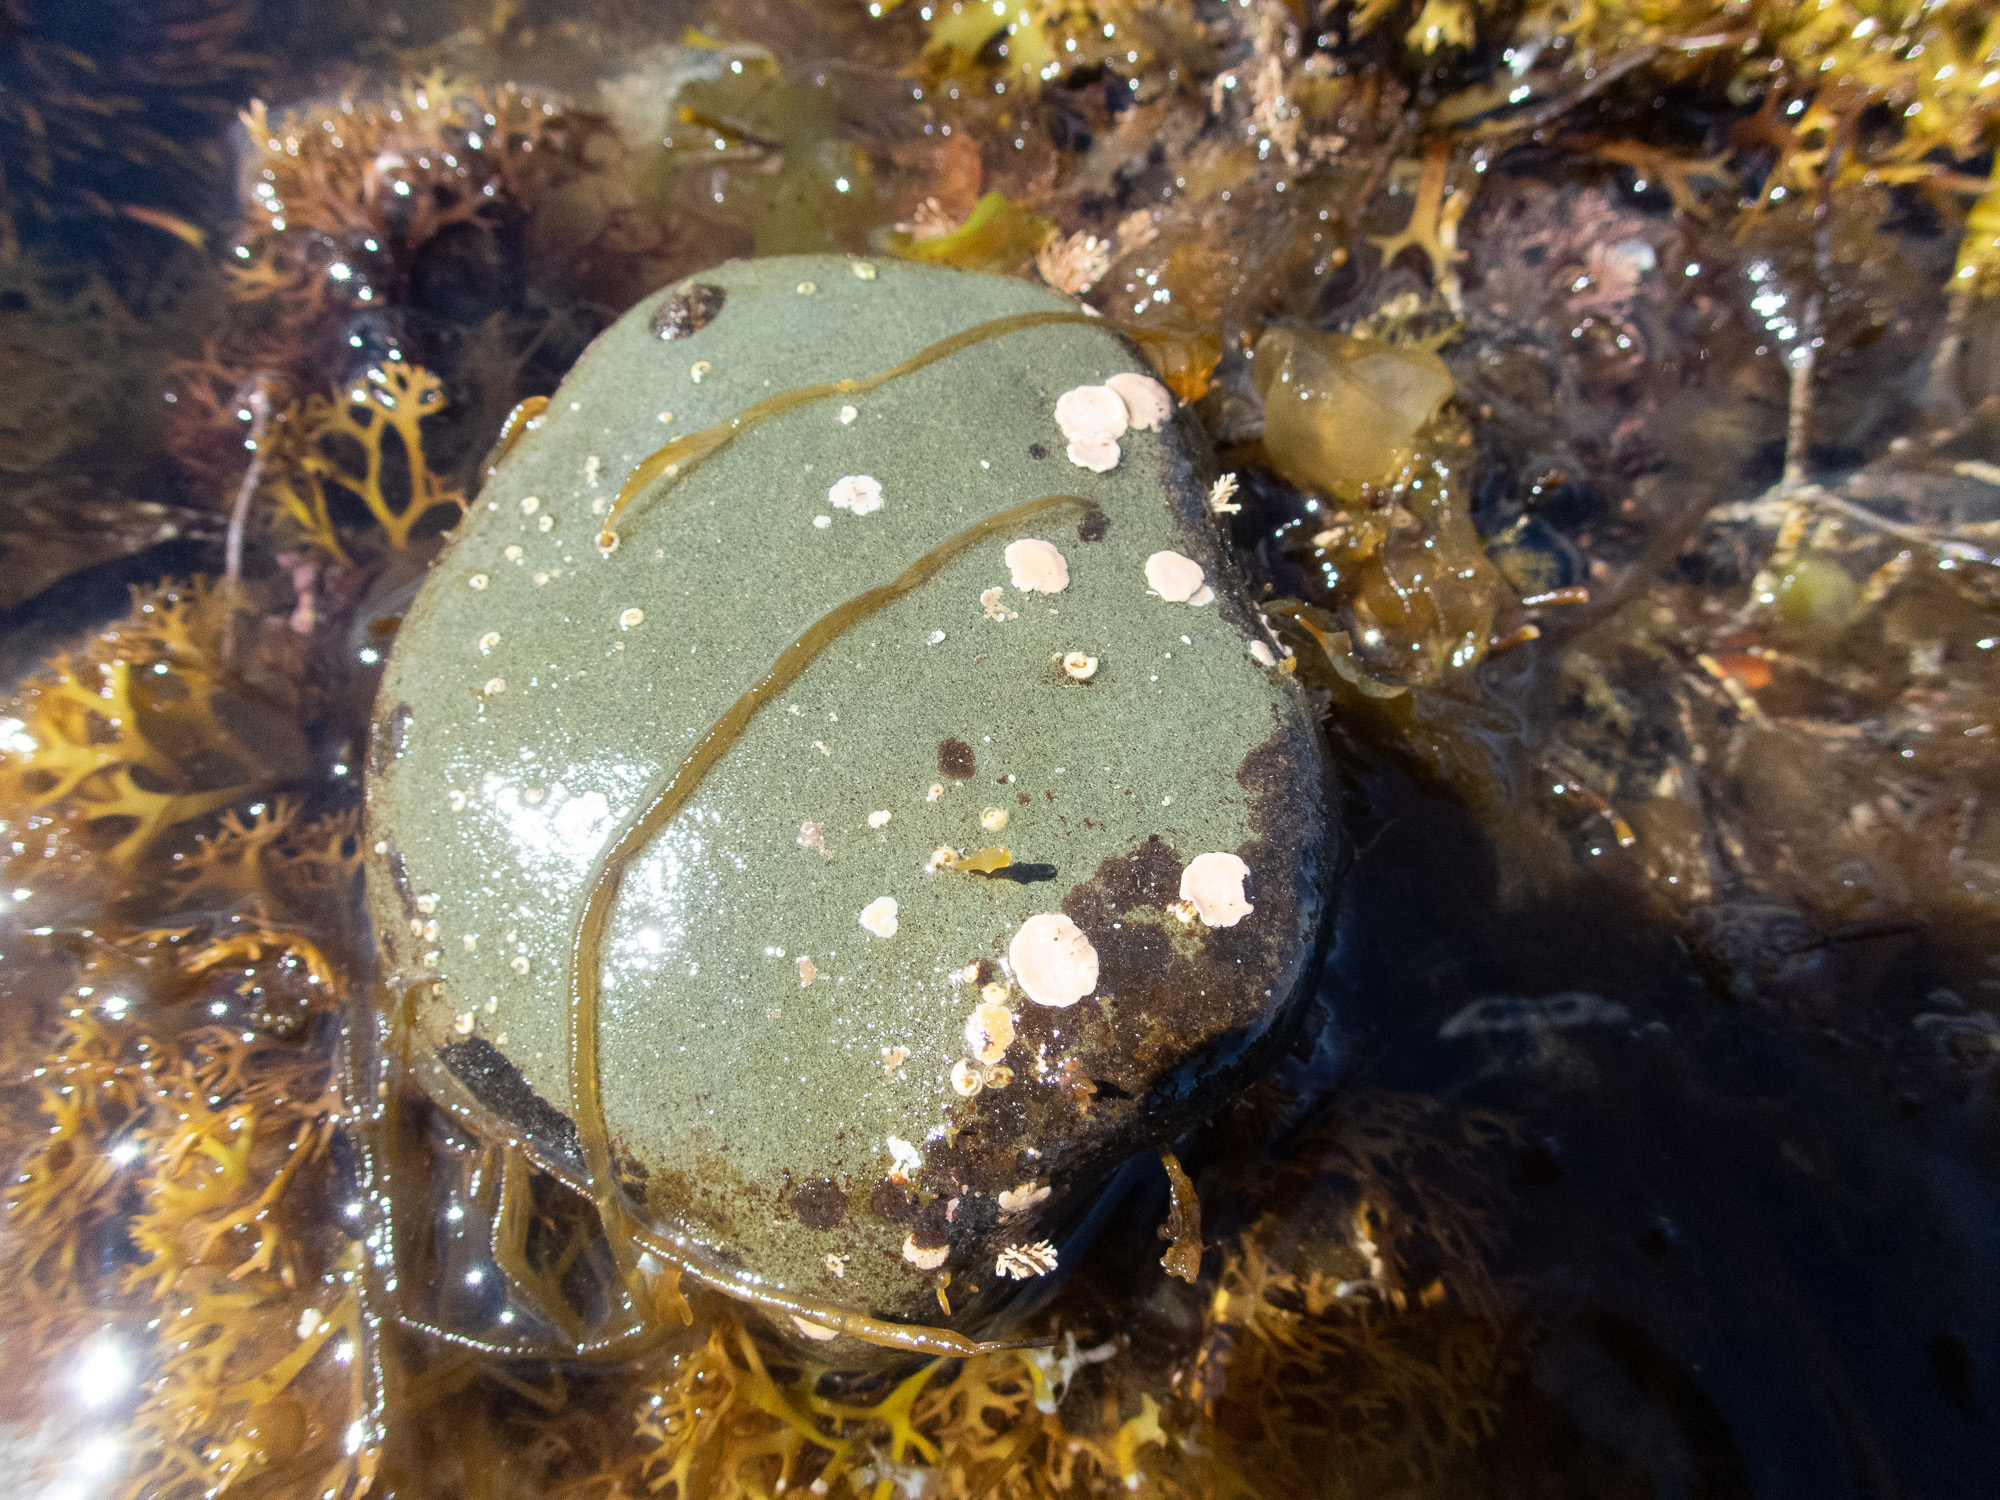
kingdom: Chromista
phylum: Ochrophyta
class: Phaeophyceae
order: Ectocarpales
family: Chordariaceae
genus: Asperococcus
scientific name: Asperococcus fistulosus
